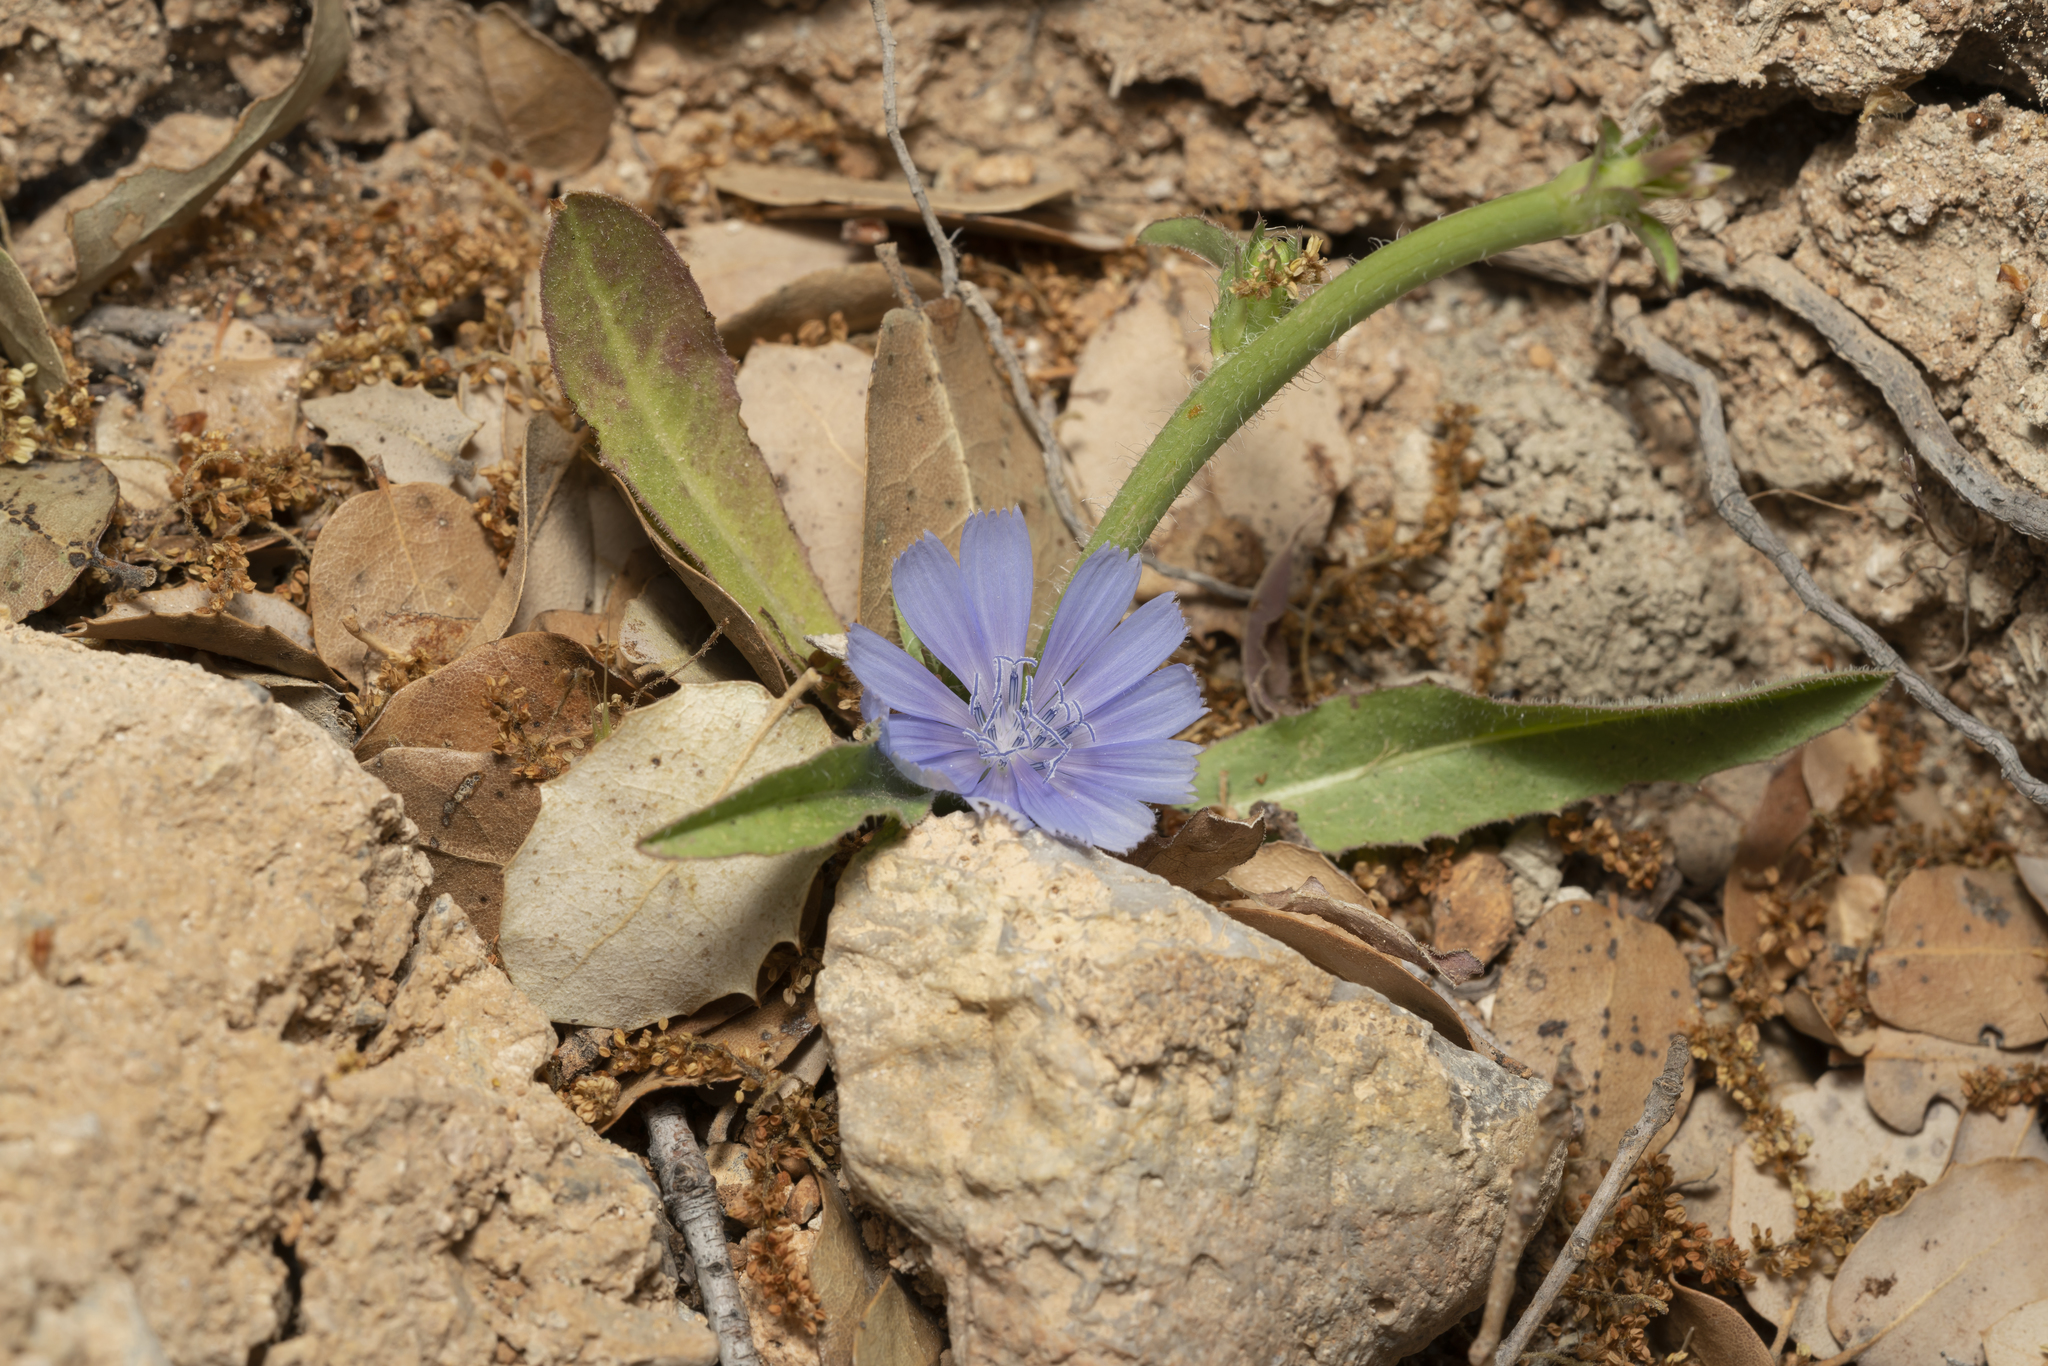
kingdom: Plantae
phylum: Tracheophyta
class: Magnoliopsida
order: Asterales
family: Asteraceae
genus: Cichorium
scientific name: Cichorium pumilum
